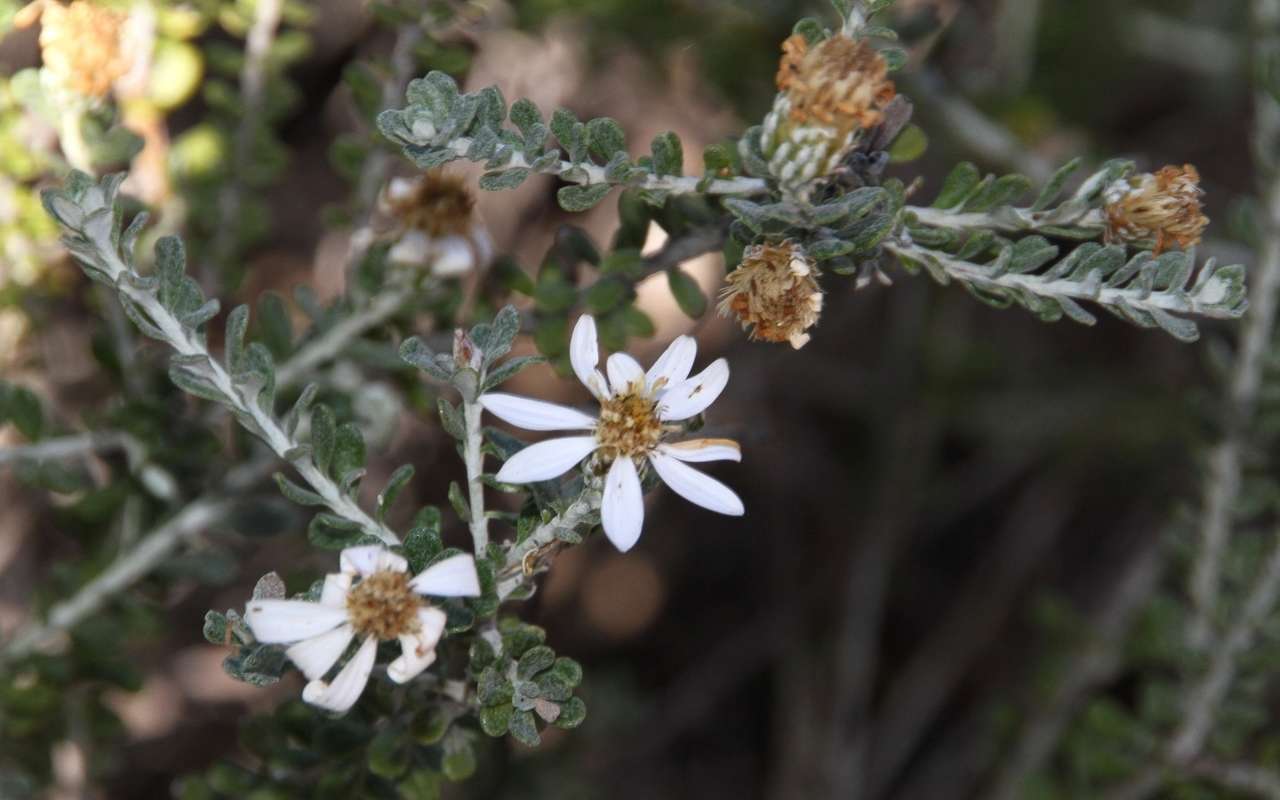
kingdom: Plantae
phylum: Tracheophyta
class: Magnoliopsida
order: Asterales
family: Asteraceae
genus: Olearia
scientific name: Olearia pimeleoides
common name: Showy daisybush
